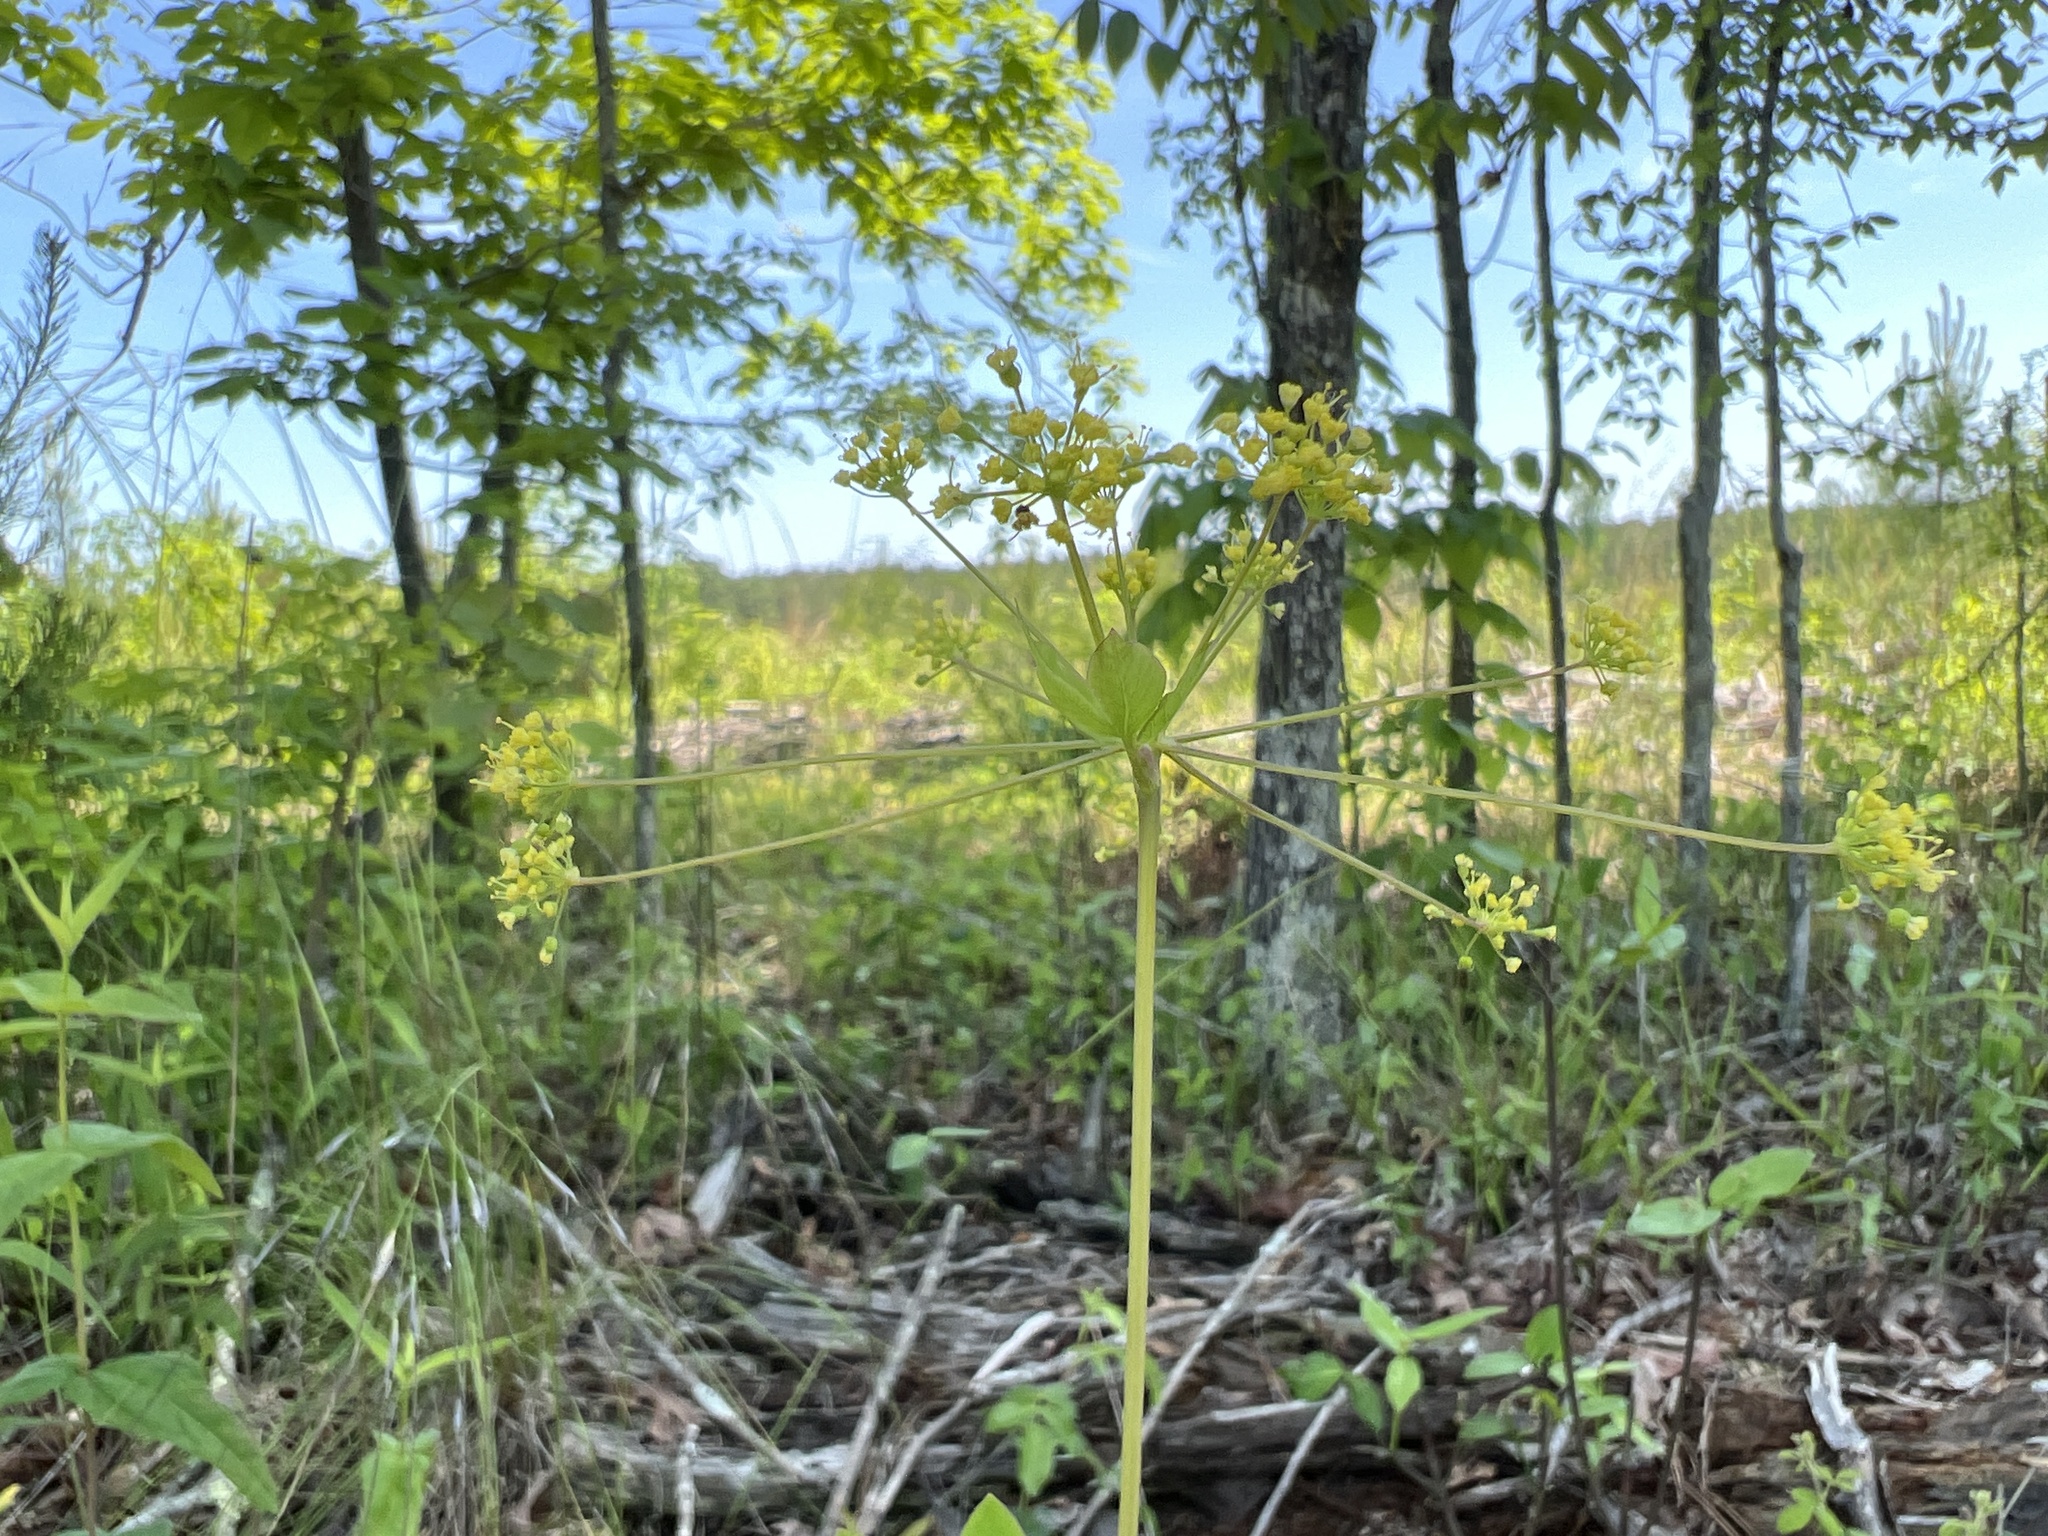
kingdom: Plantae
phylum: Tracheophyta
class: Magnoliopsida
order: Apiales
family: Apiaceae
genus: Taenidia
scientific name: Taenidia integerrima
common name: Golden alexander
